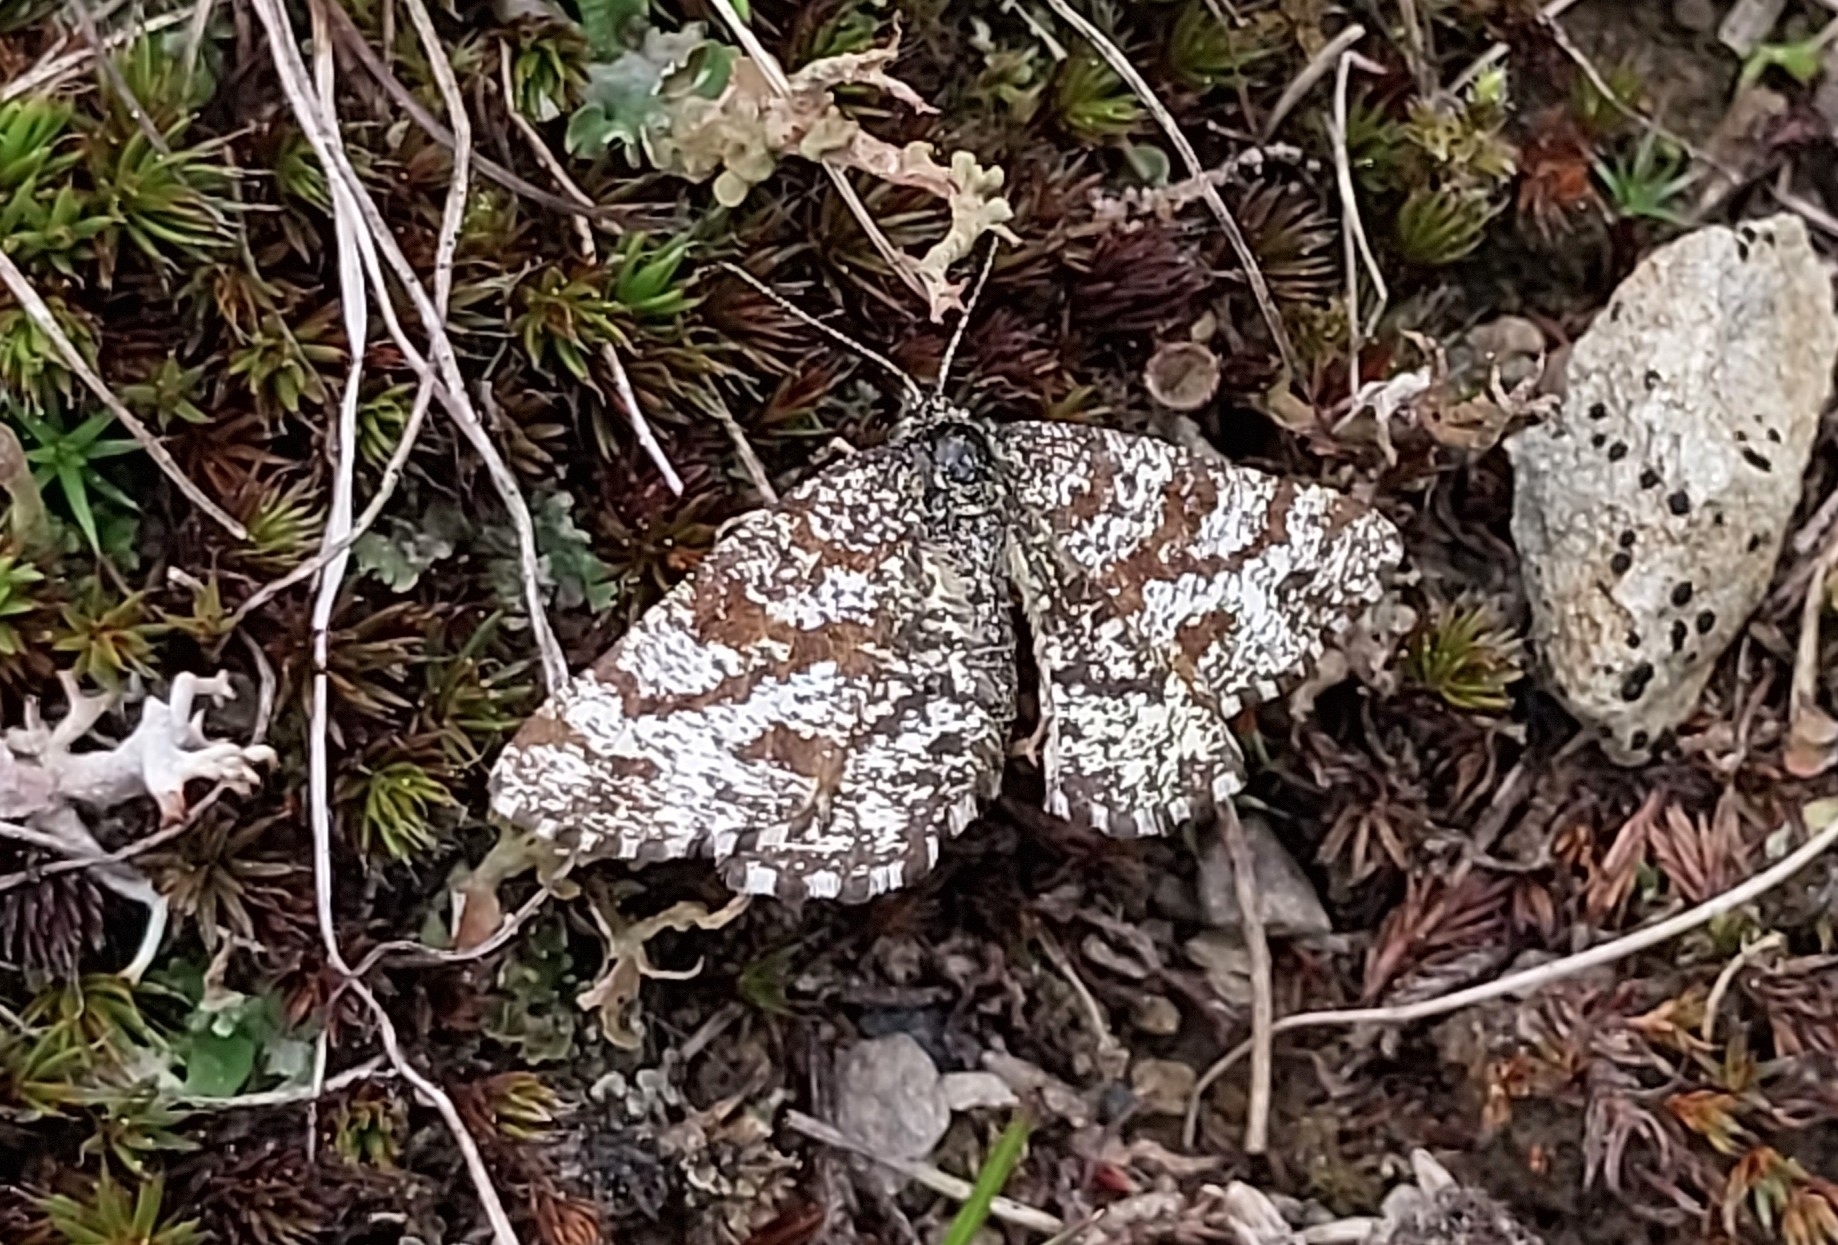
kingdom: Animalia
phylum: Arthropoda
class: Insecta
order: Lepidoptera
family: Geometridae
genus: Ematurga
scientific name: Ematurga atomaria
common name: Common heath
